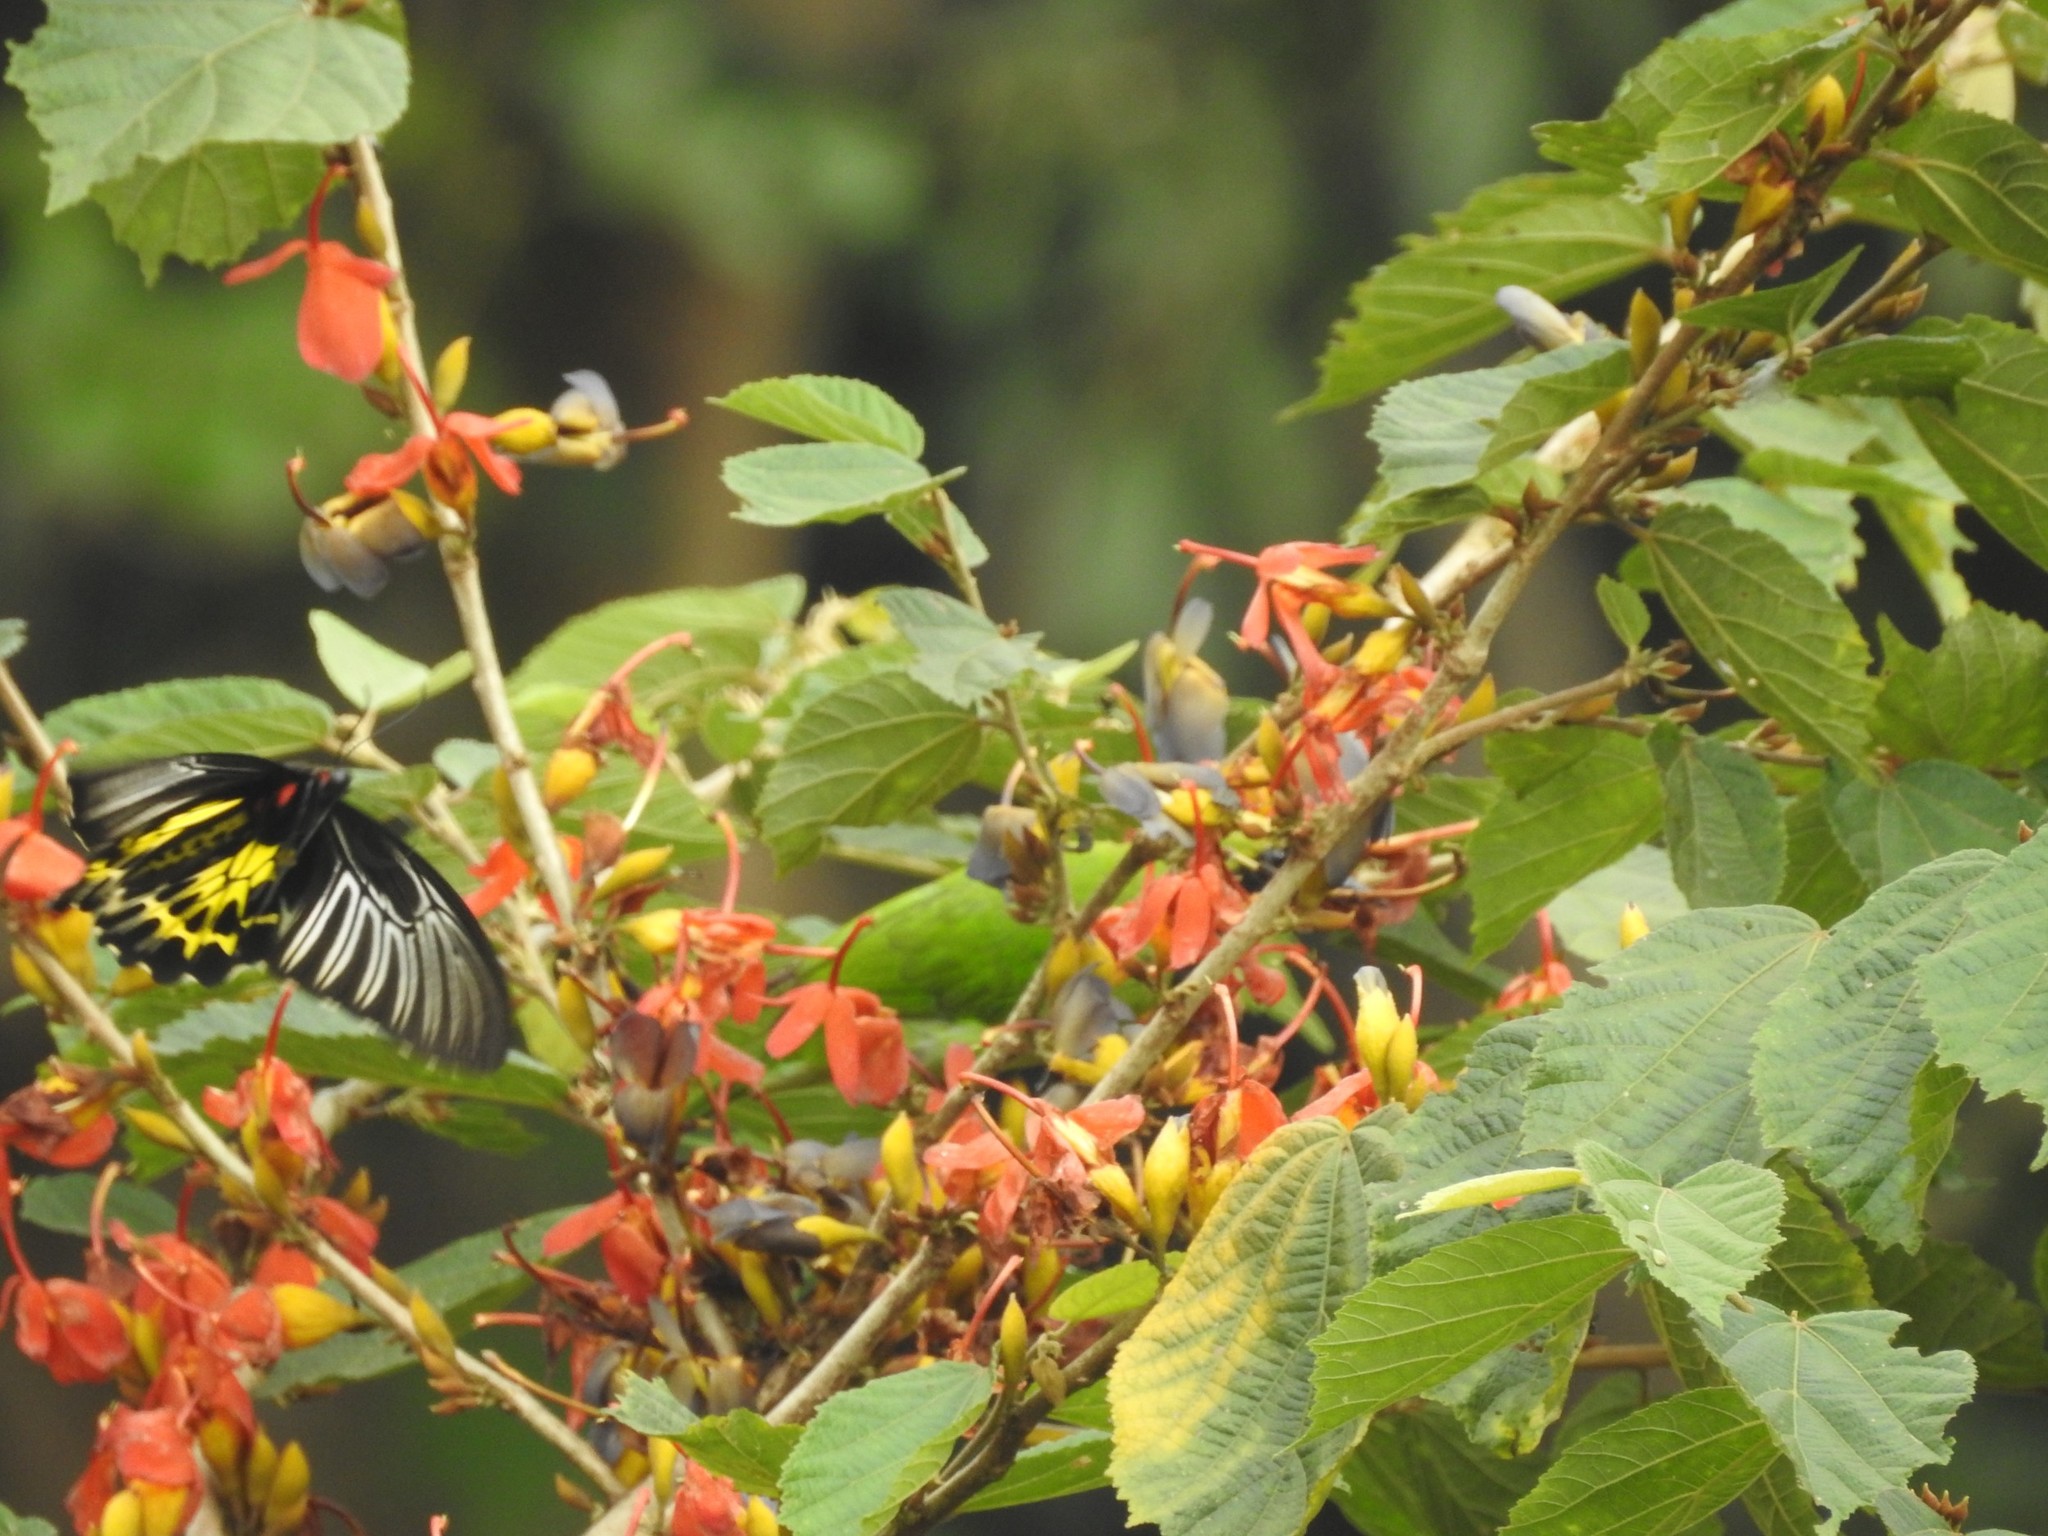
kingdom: Animalia
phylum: Arthropoda
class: Insecta
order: Lepidoptera
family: Papilionidae
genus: Troides
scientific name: Troides minos
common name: Malabar birdwing
